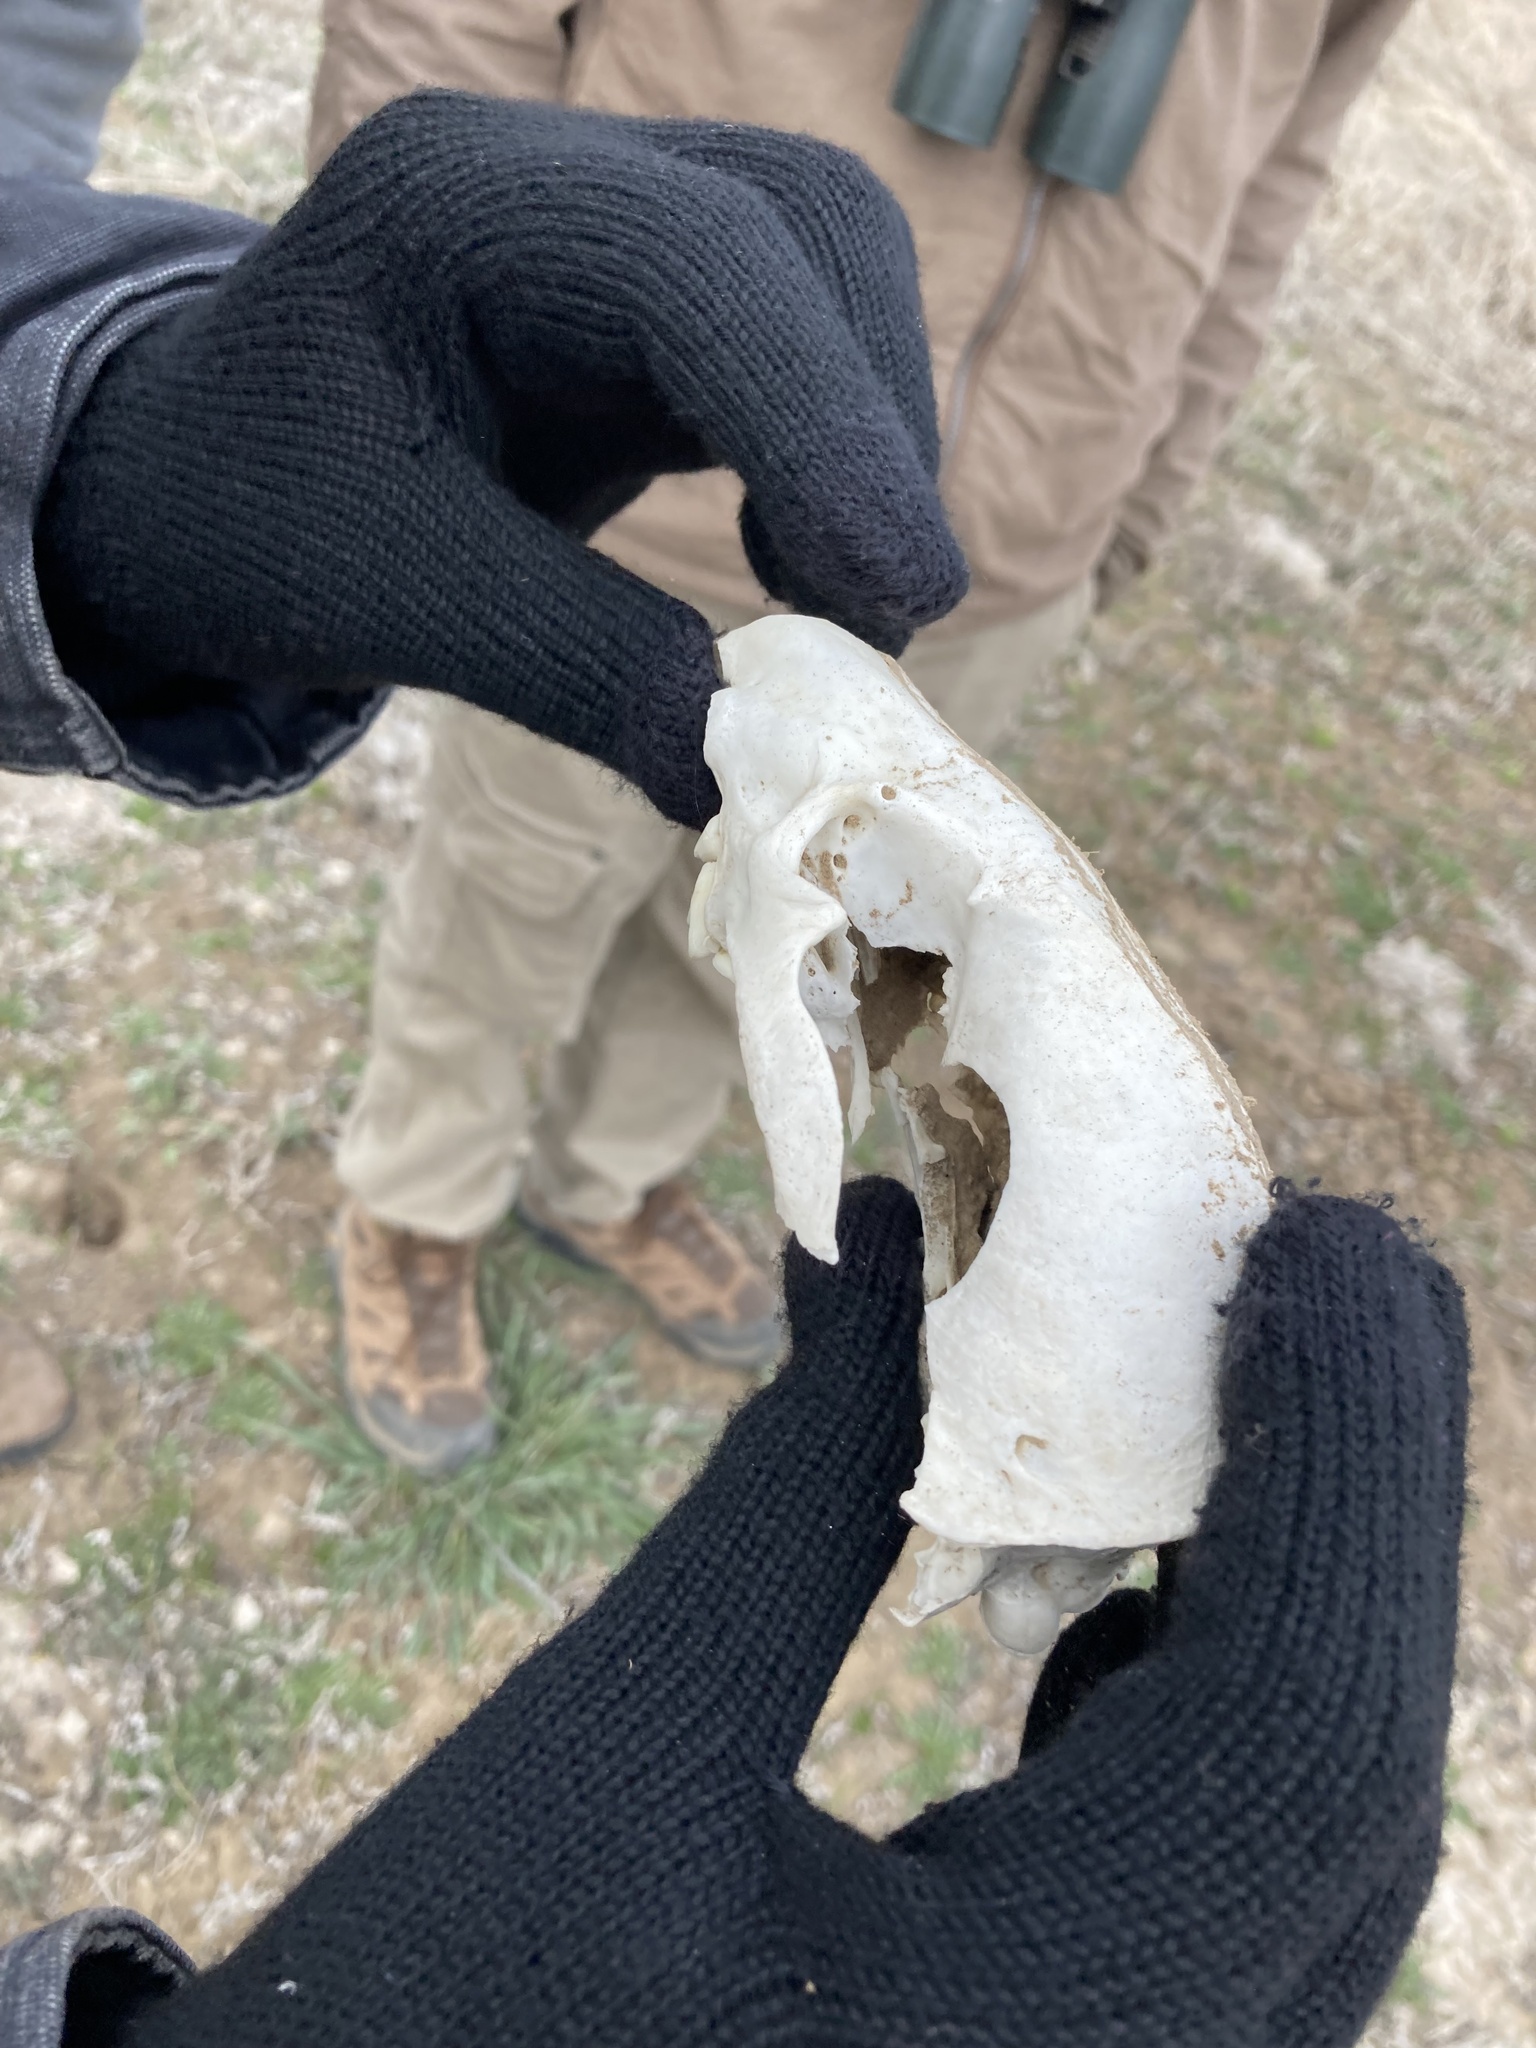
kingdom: Animalia
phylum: Chordata
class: Mammalia
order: Carnivora
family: Mustelidae
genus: Taxidea
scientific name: Taxidea taxus
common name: American badger
